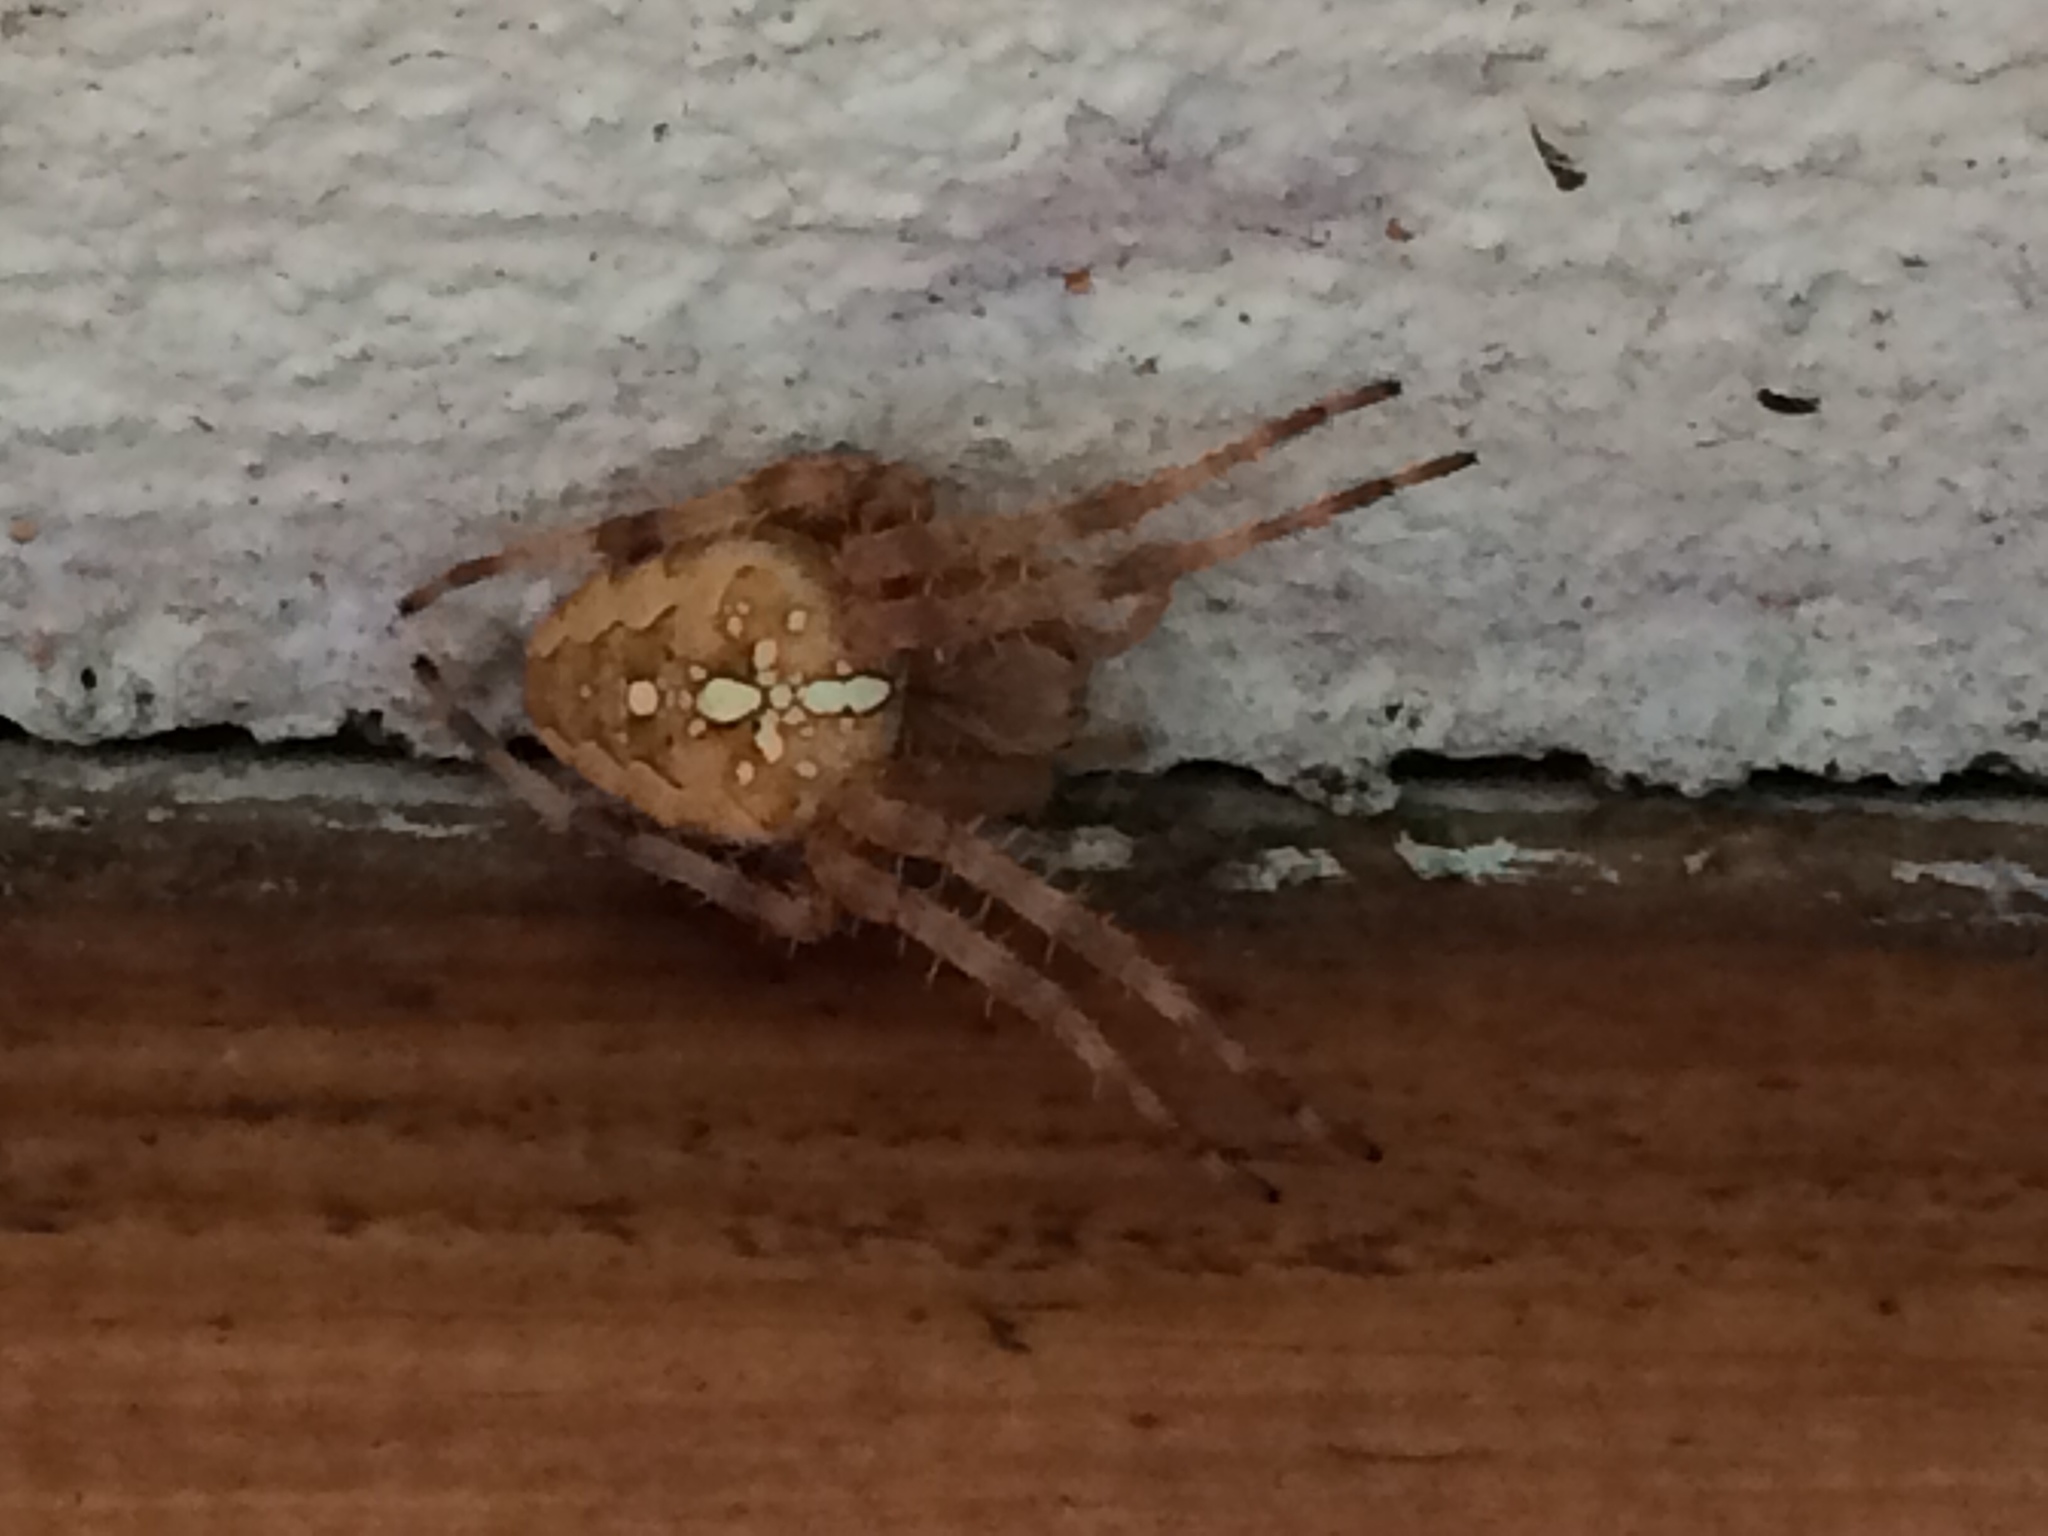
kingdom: Animalia
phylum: Arthropoda
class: Arachnida
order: Araneae
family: Araneidae
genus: Araneus
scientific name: Araneus diadematus
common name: Cross orbweaver
